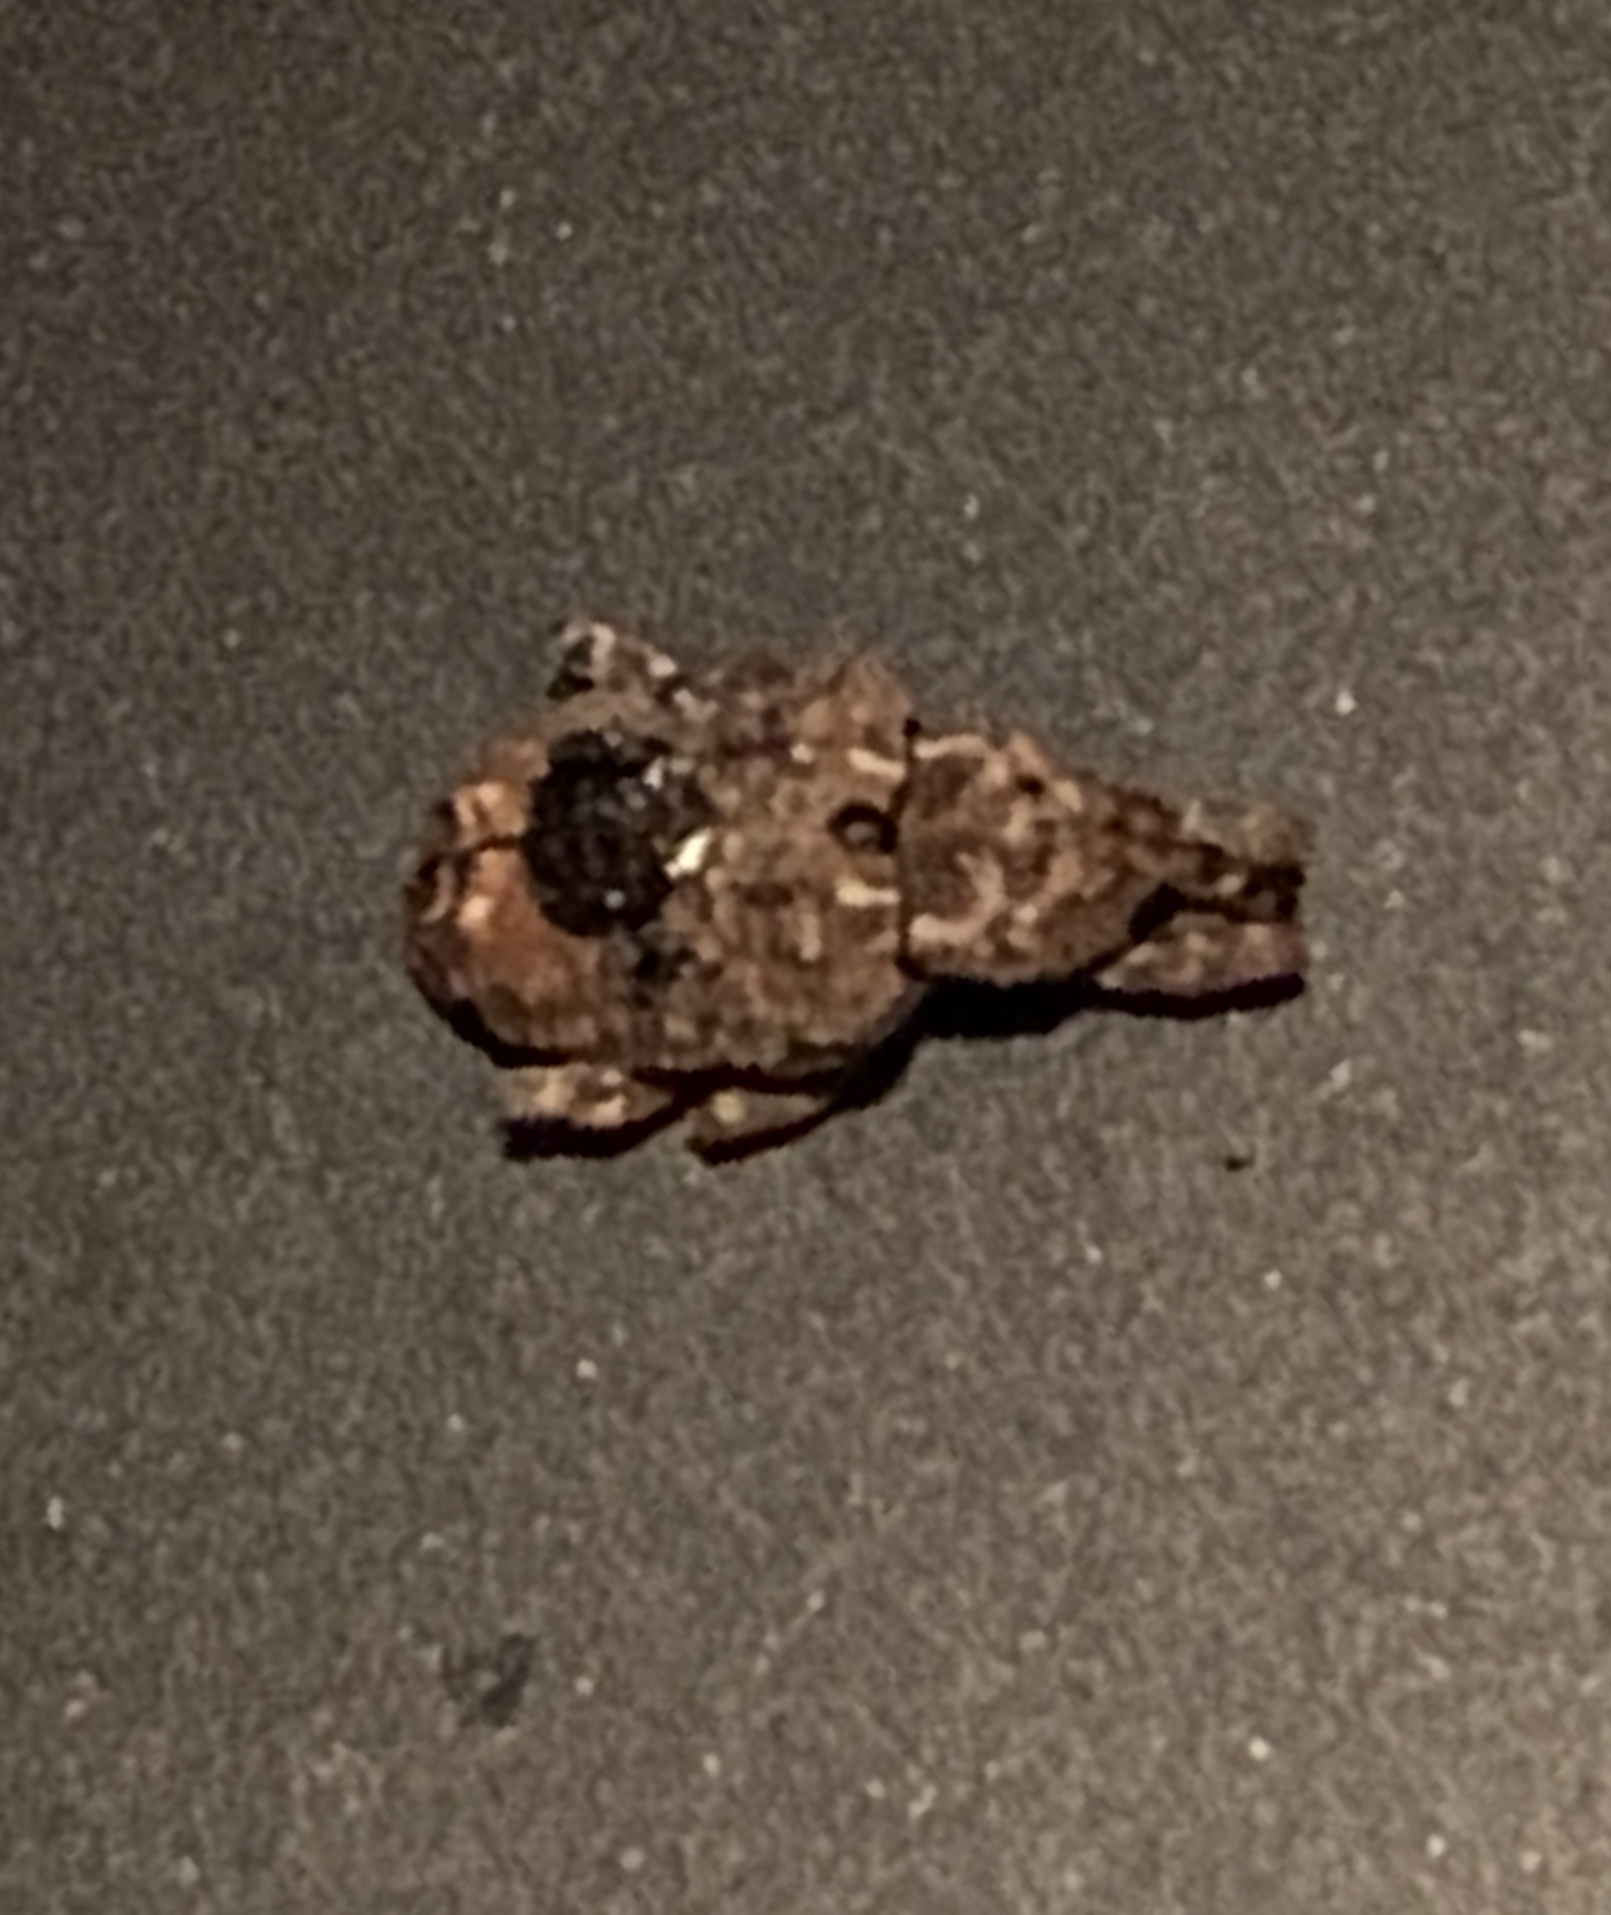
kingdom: Animalia
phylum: Arthropoda
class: Insecta
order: Coleoptera
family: Curculionidae
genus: Conotrachelus
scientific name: Conotrachelus nenuphar
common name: Plum curculio
